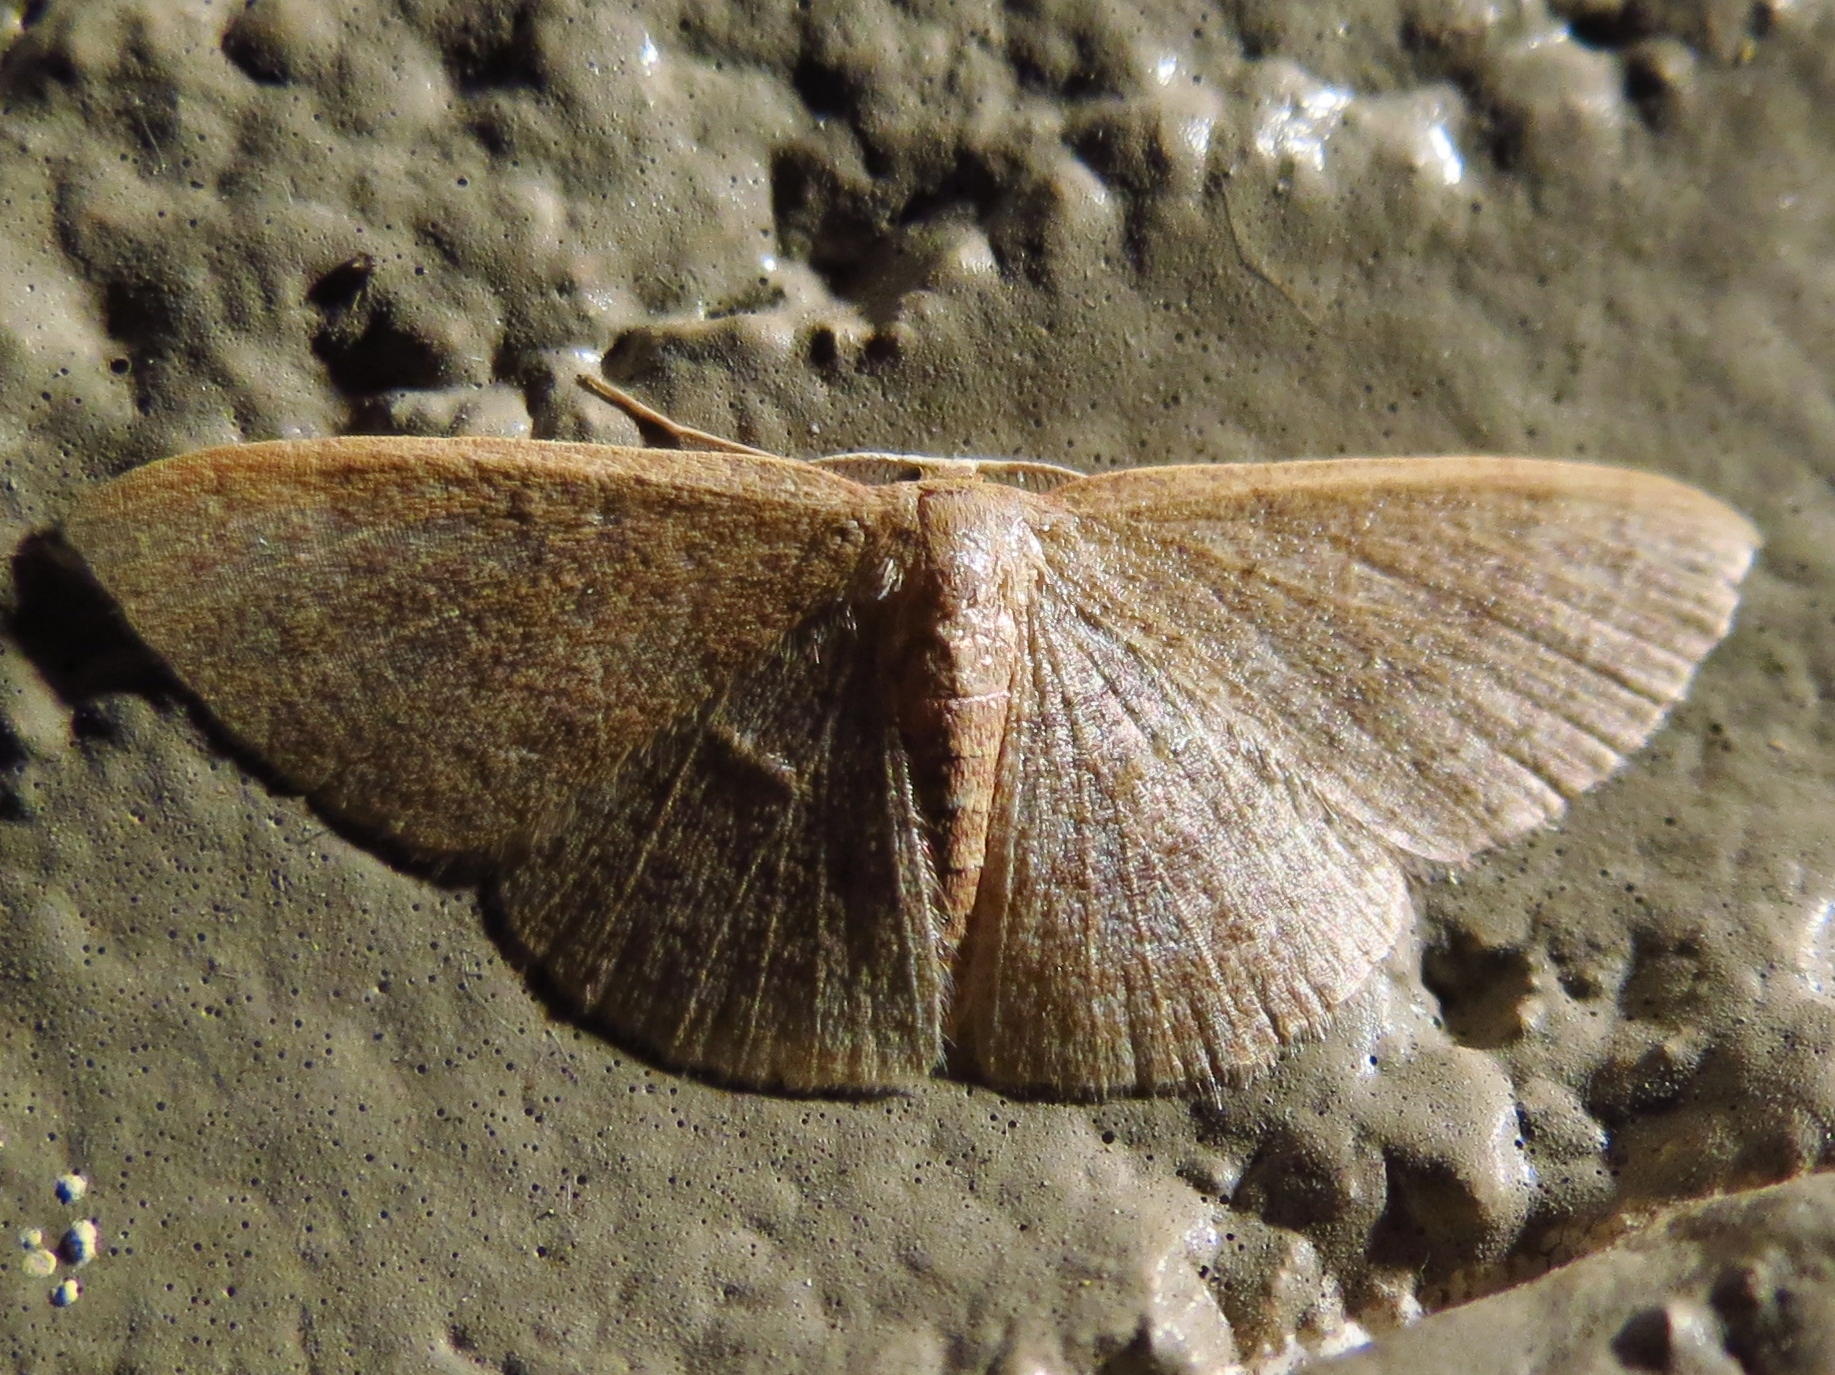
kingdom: Animalia
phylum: Arthropoda
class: Insecta
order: Lepidoptera
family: Geometridae
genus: Pleuroprucha
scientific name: Pleuroprucha insulsaria
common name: Common tan wave
